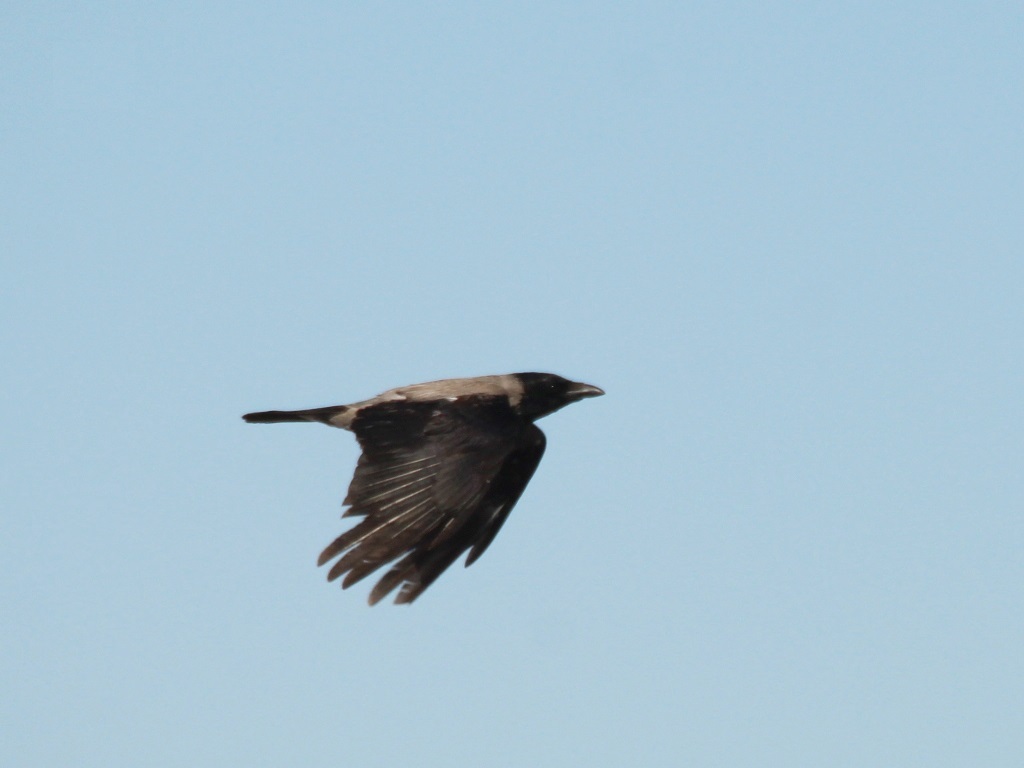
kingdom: Animalia
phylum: Chordata
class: Aves
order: Passeriformes
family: Corvidae
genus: Corvus
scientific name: Corvus cornix
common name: Hooded crow
